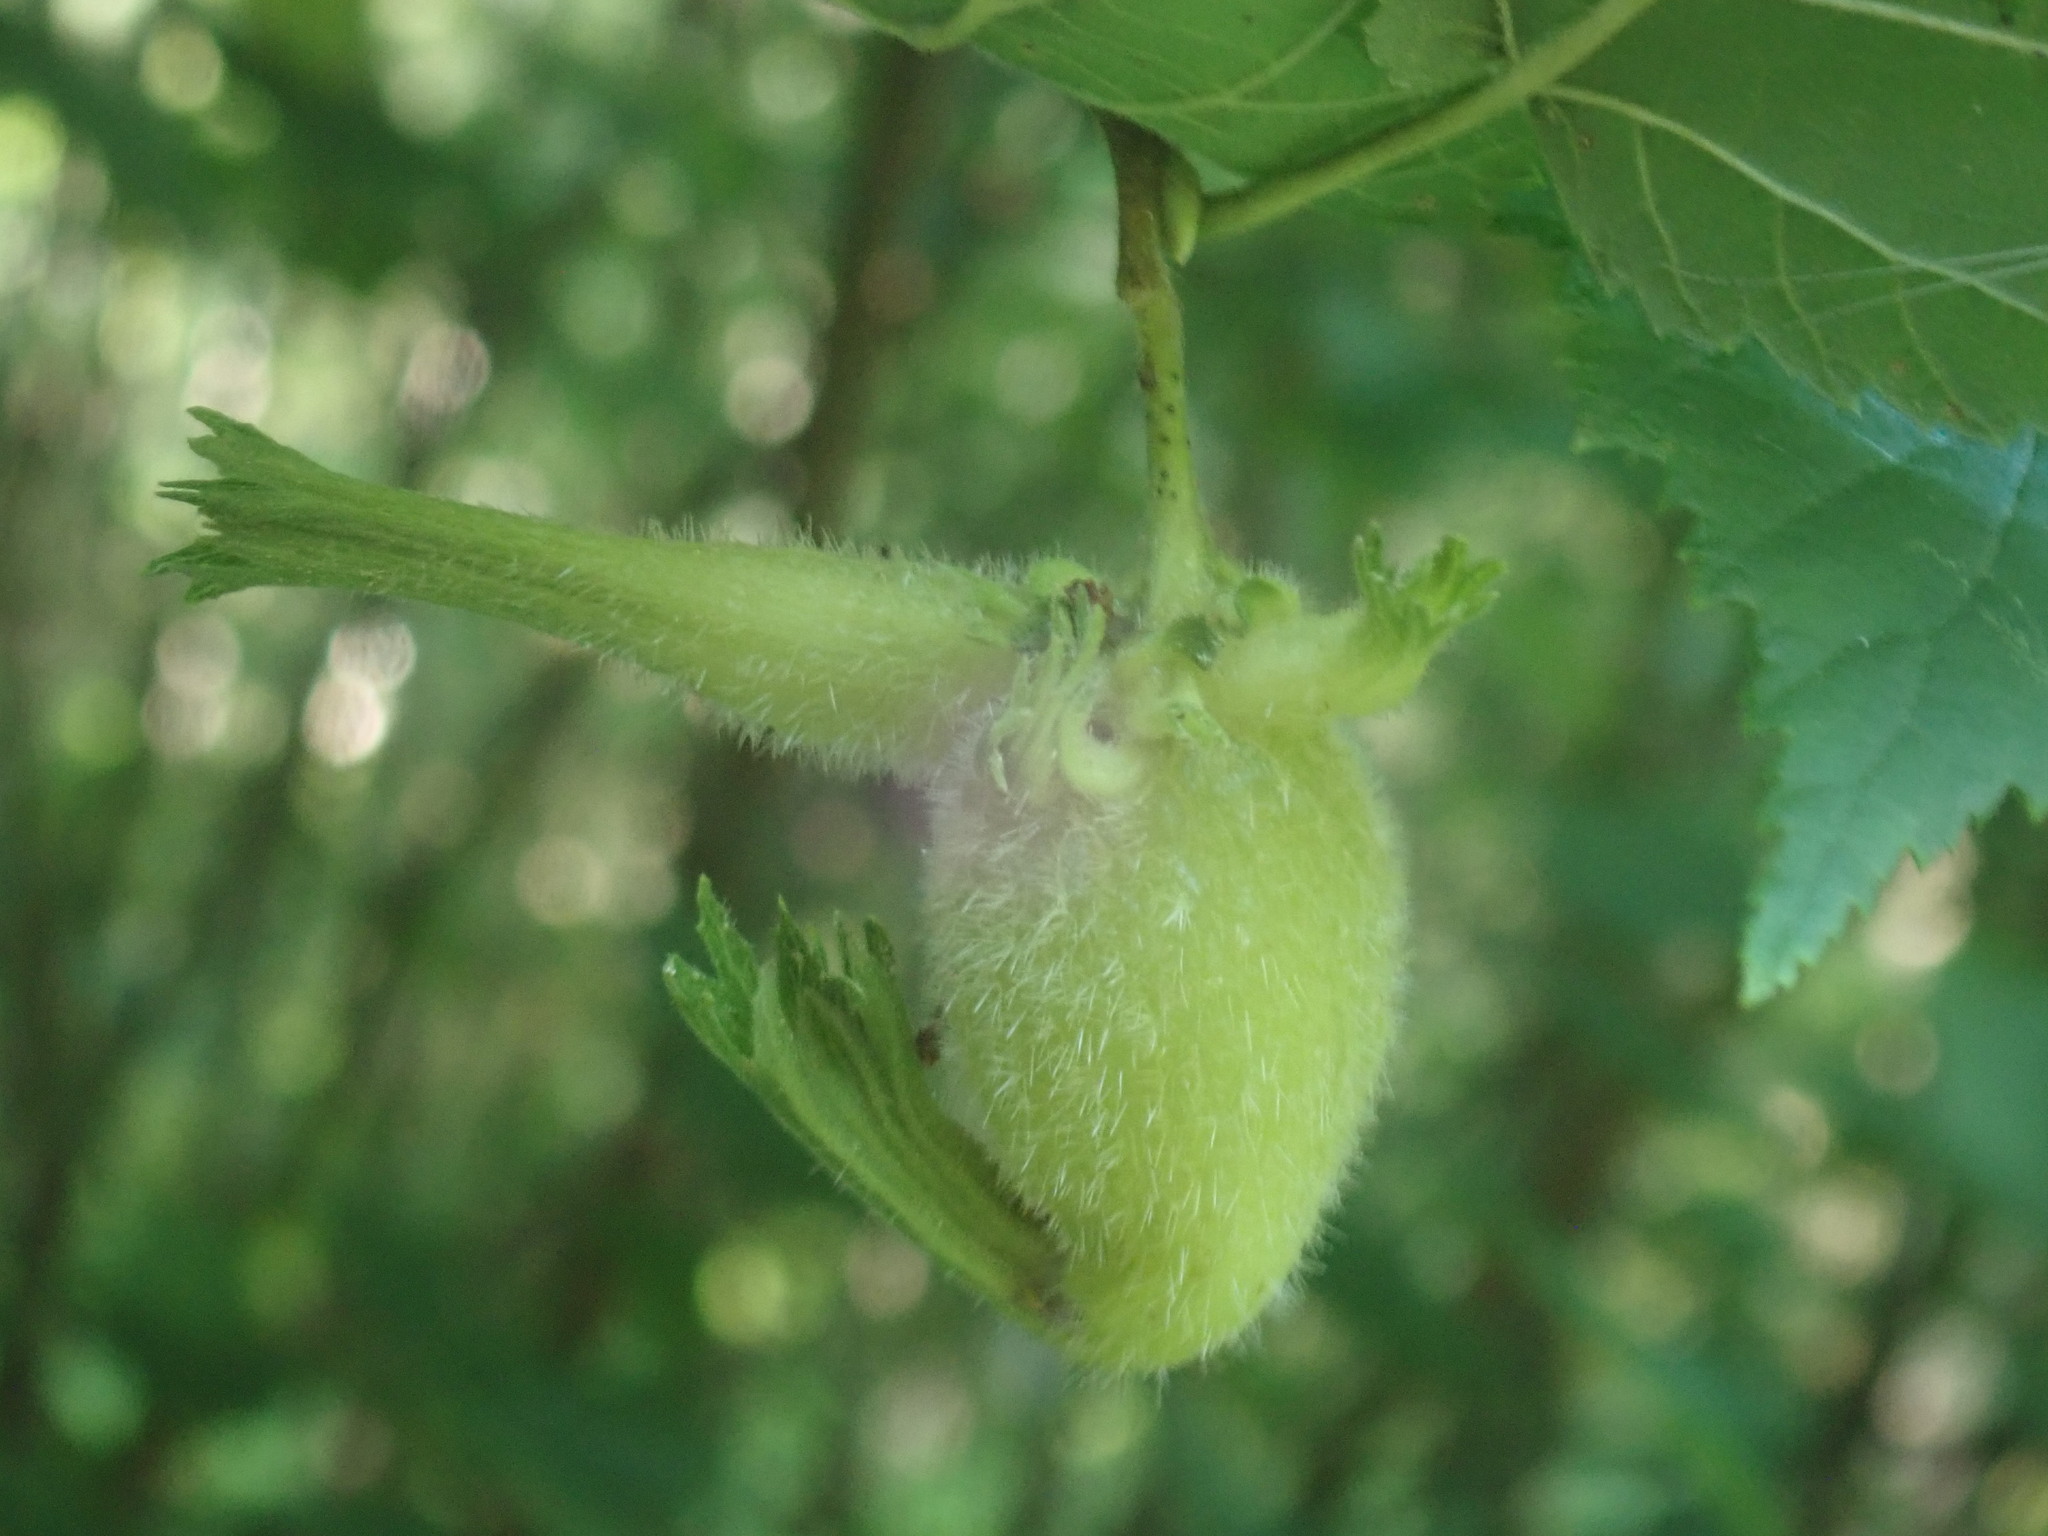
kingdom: Plantae
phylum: Tracheophyta
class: Magnoliopsida
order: Fagales
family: Betulaceae
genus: Corylus
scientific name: Corylus cornuta
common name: Beaked hazel
